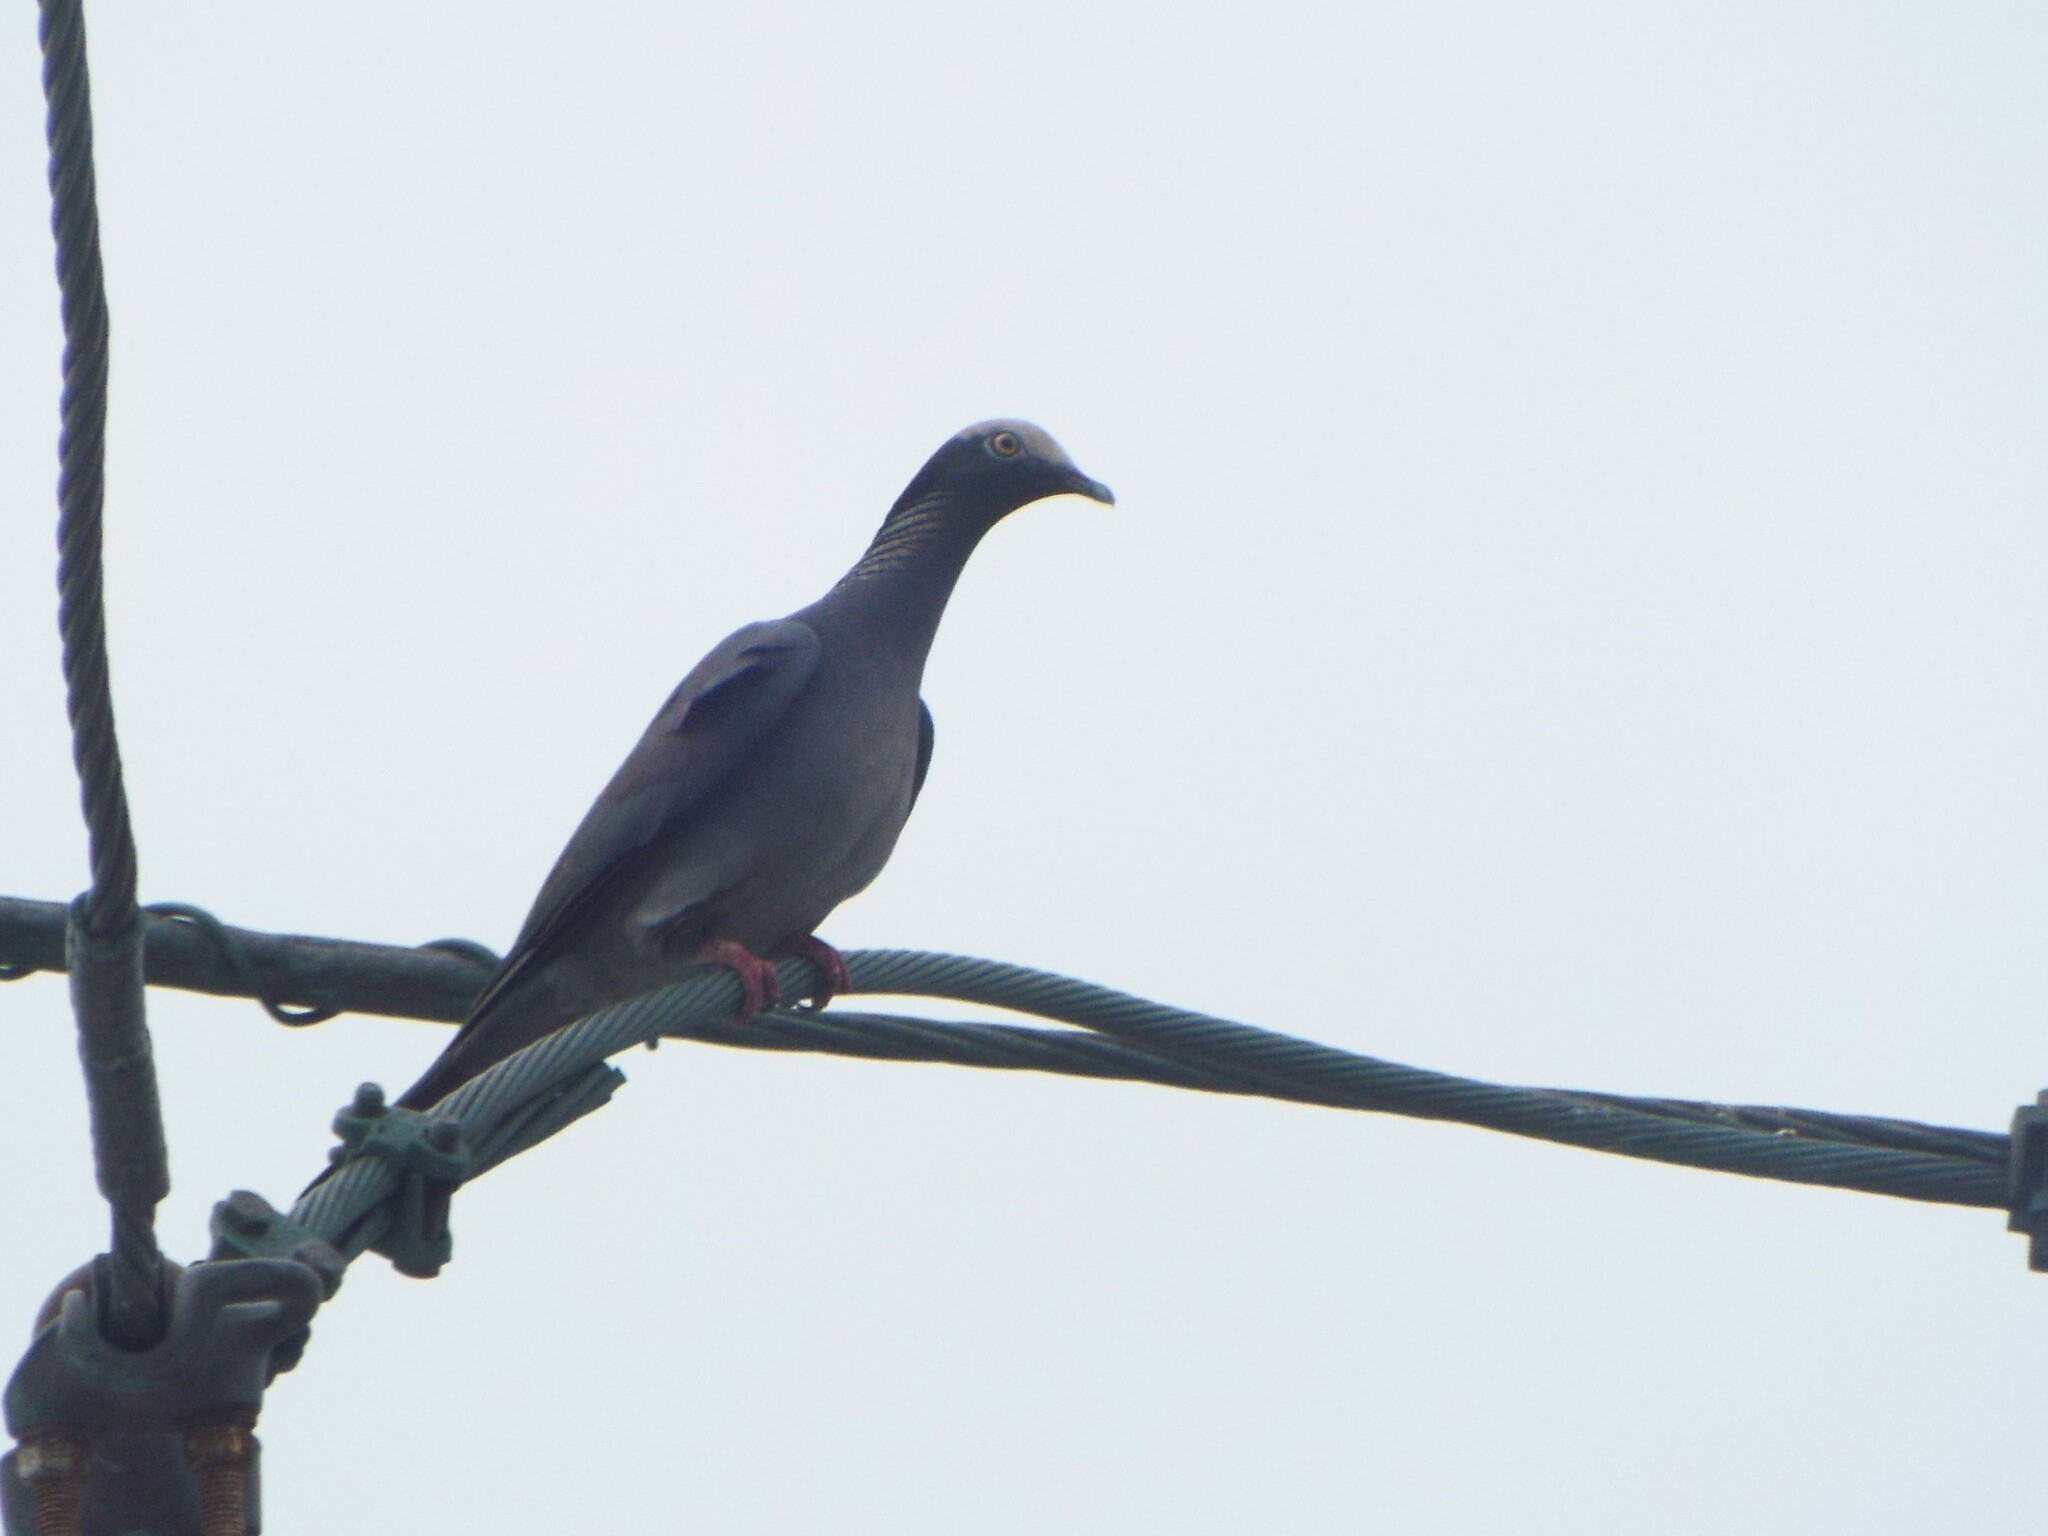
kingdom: Animalia
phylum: Chordata
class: Aves
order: Columbiformes
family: Columbidae
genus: Patagioenas
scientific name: Patagioenas leucocephala
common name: White-crowned pigeon
